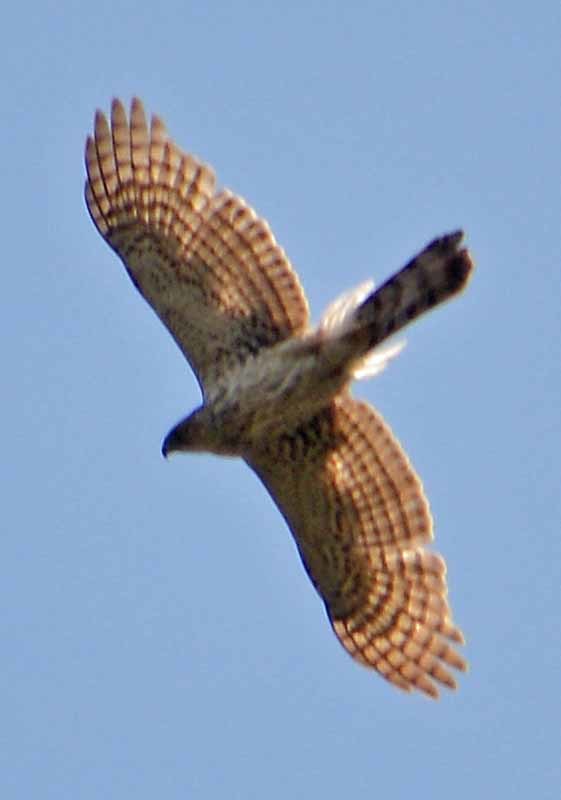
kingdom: Animalia
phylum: Chordata
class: Aves
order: Accipitriformes
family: Accipitridae
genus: Accipiter
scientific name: Accipiter cooperii
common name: Cooper's hawk
